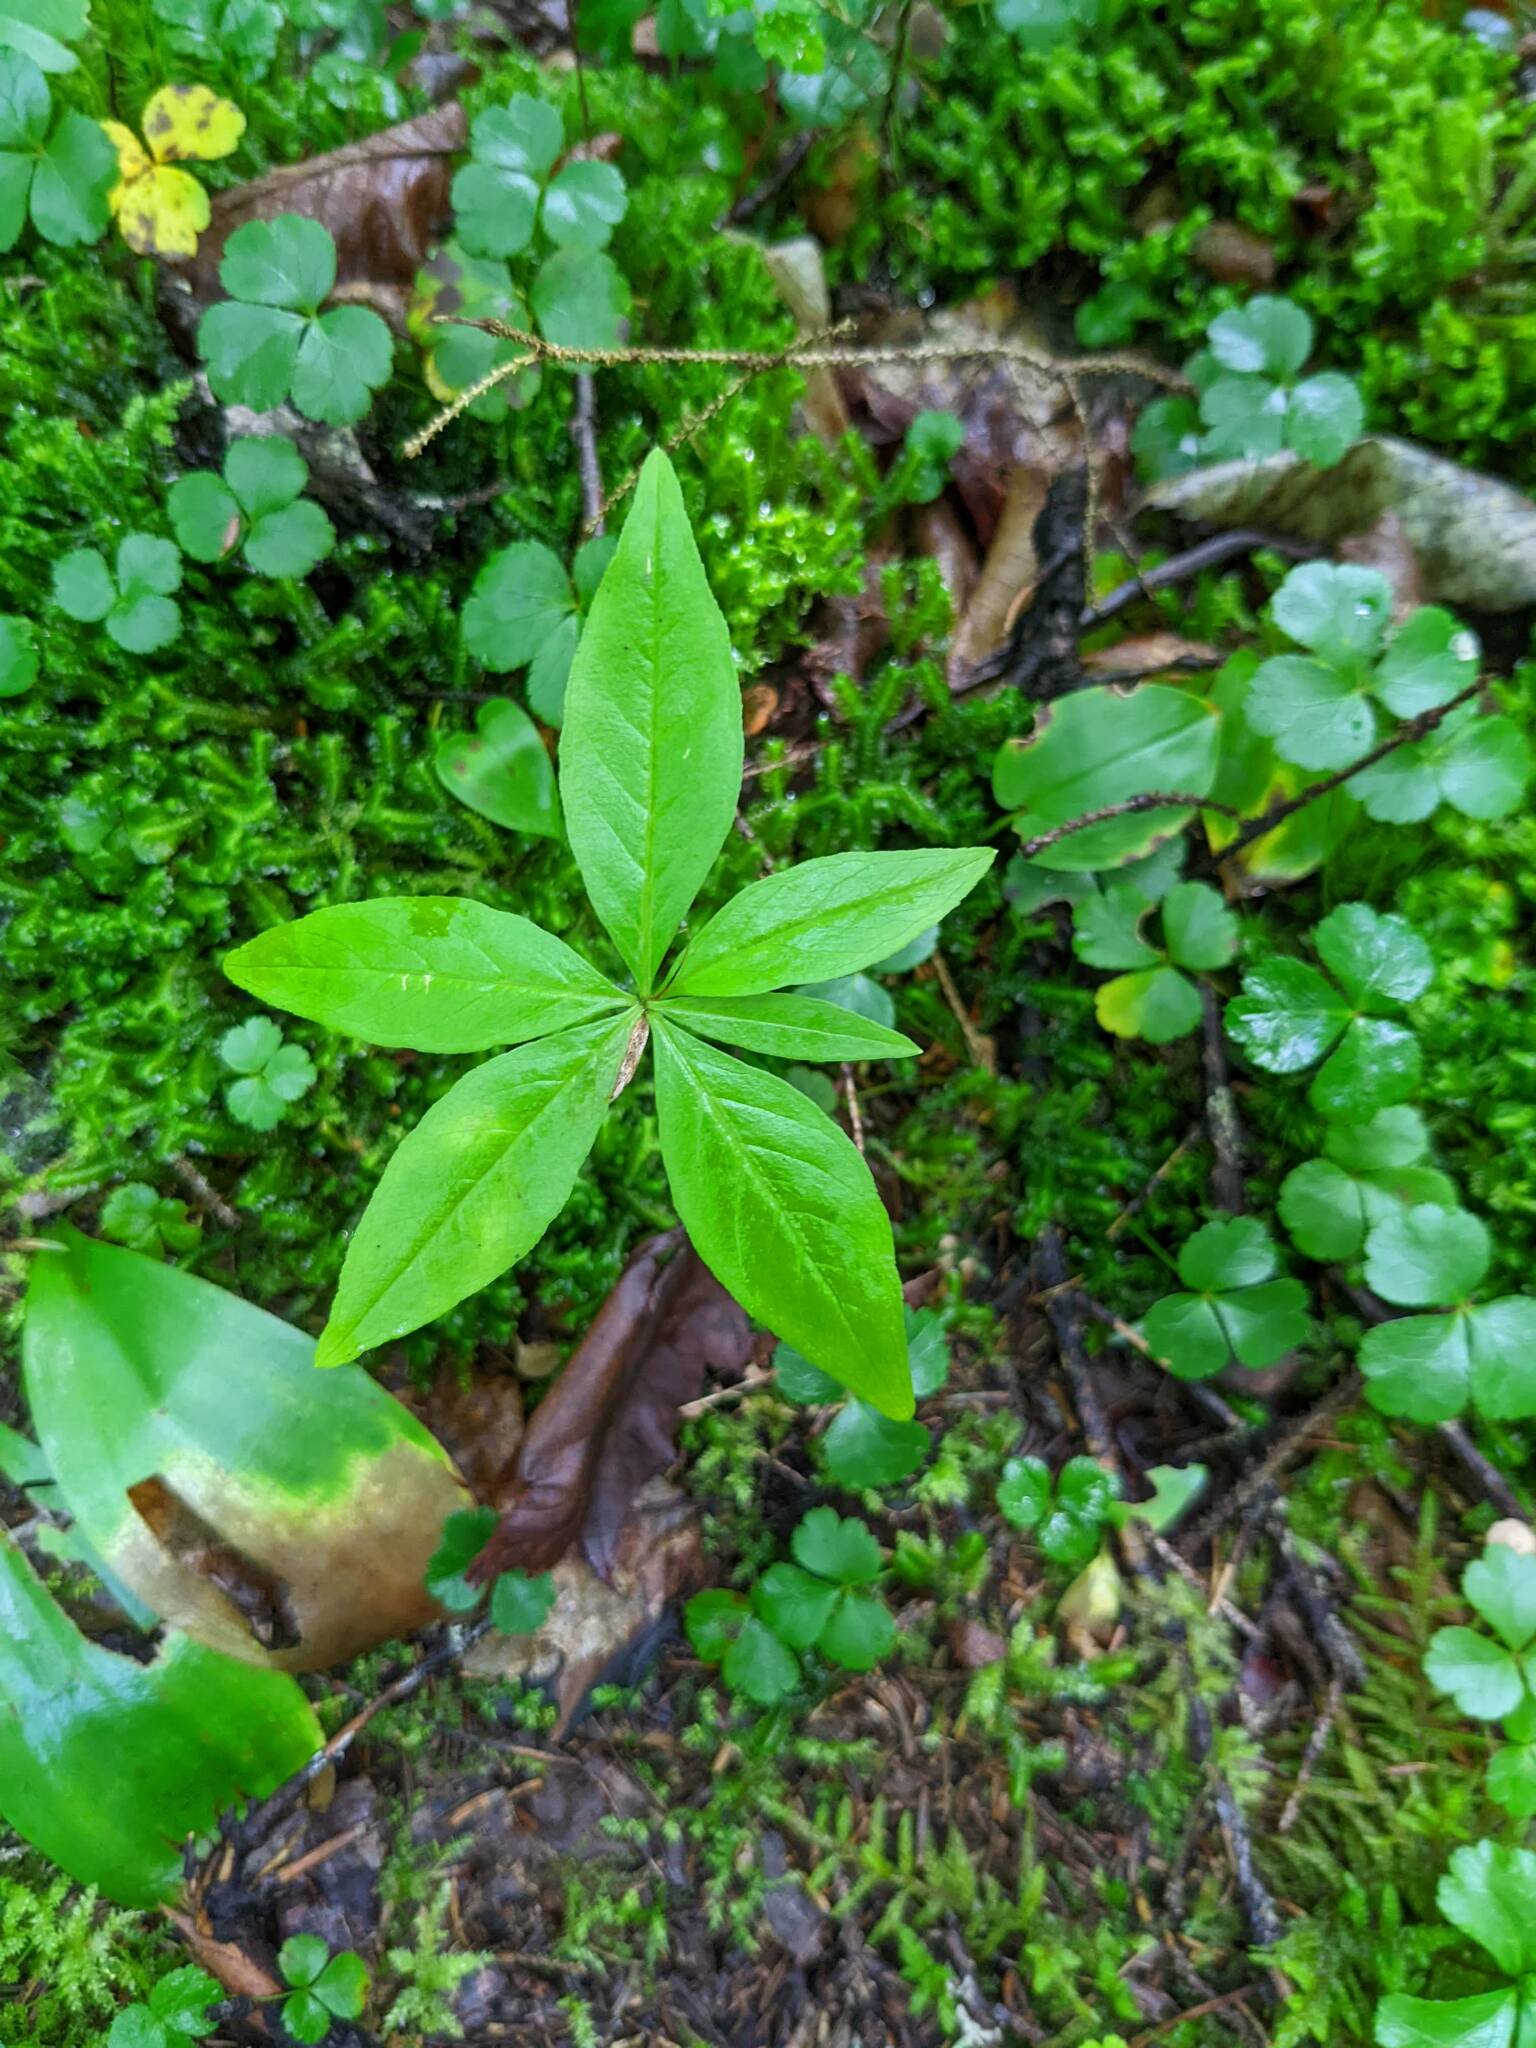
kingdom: Plantae
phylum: Tracheophyta
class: Magnoliopsida
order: Ericales
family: Primulaceae
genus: Lysimachia
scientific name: Lysimachia borealis
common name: American starflower
